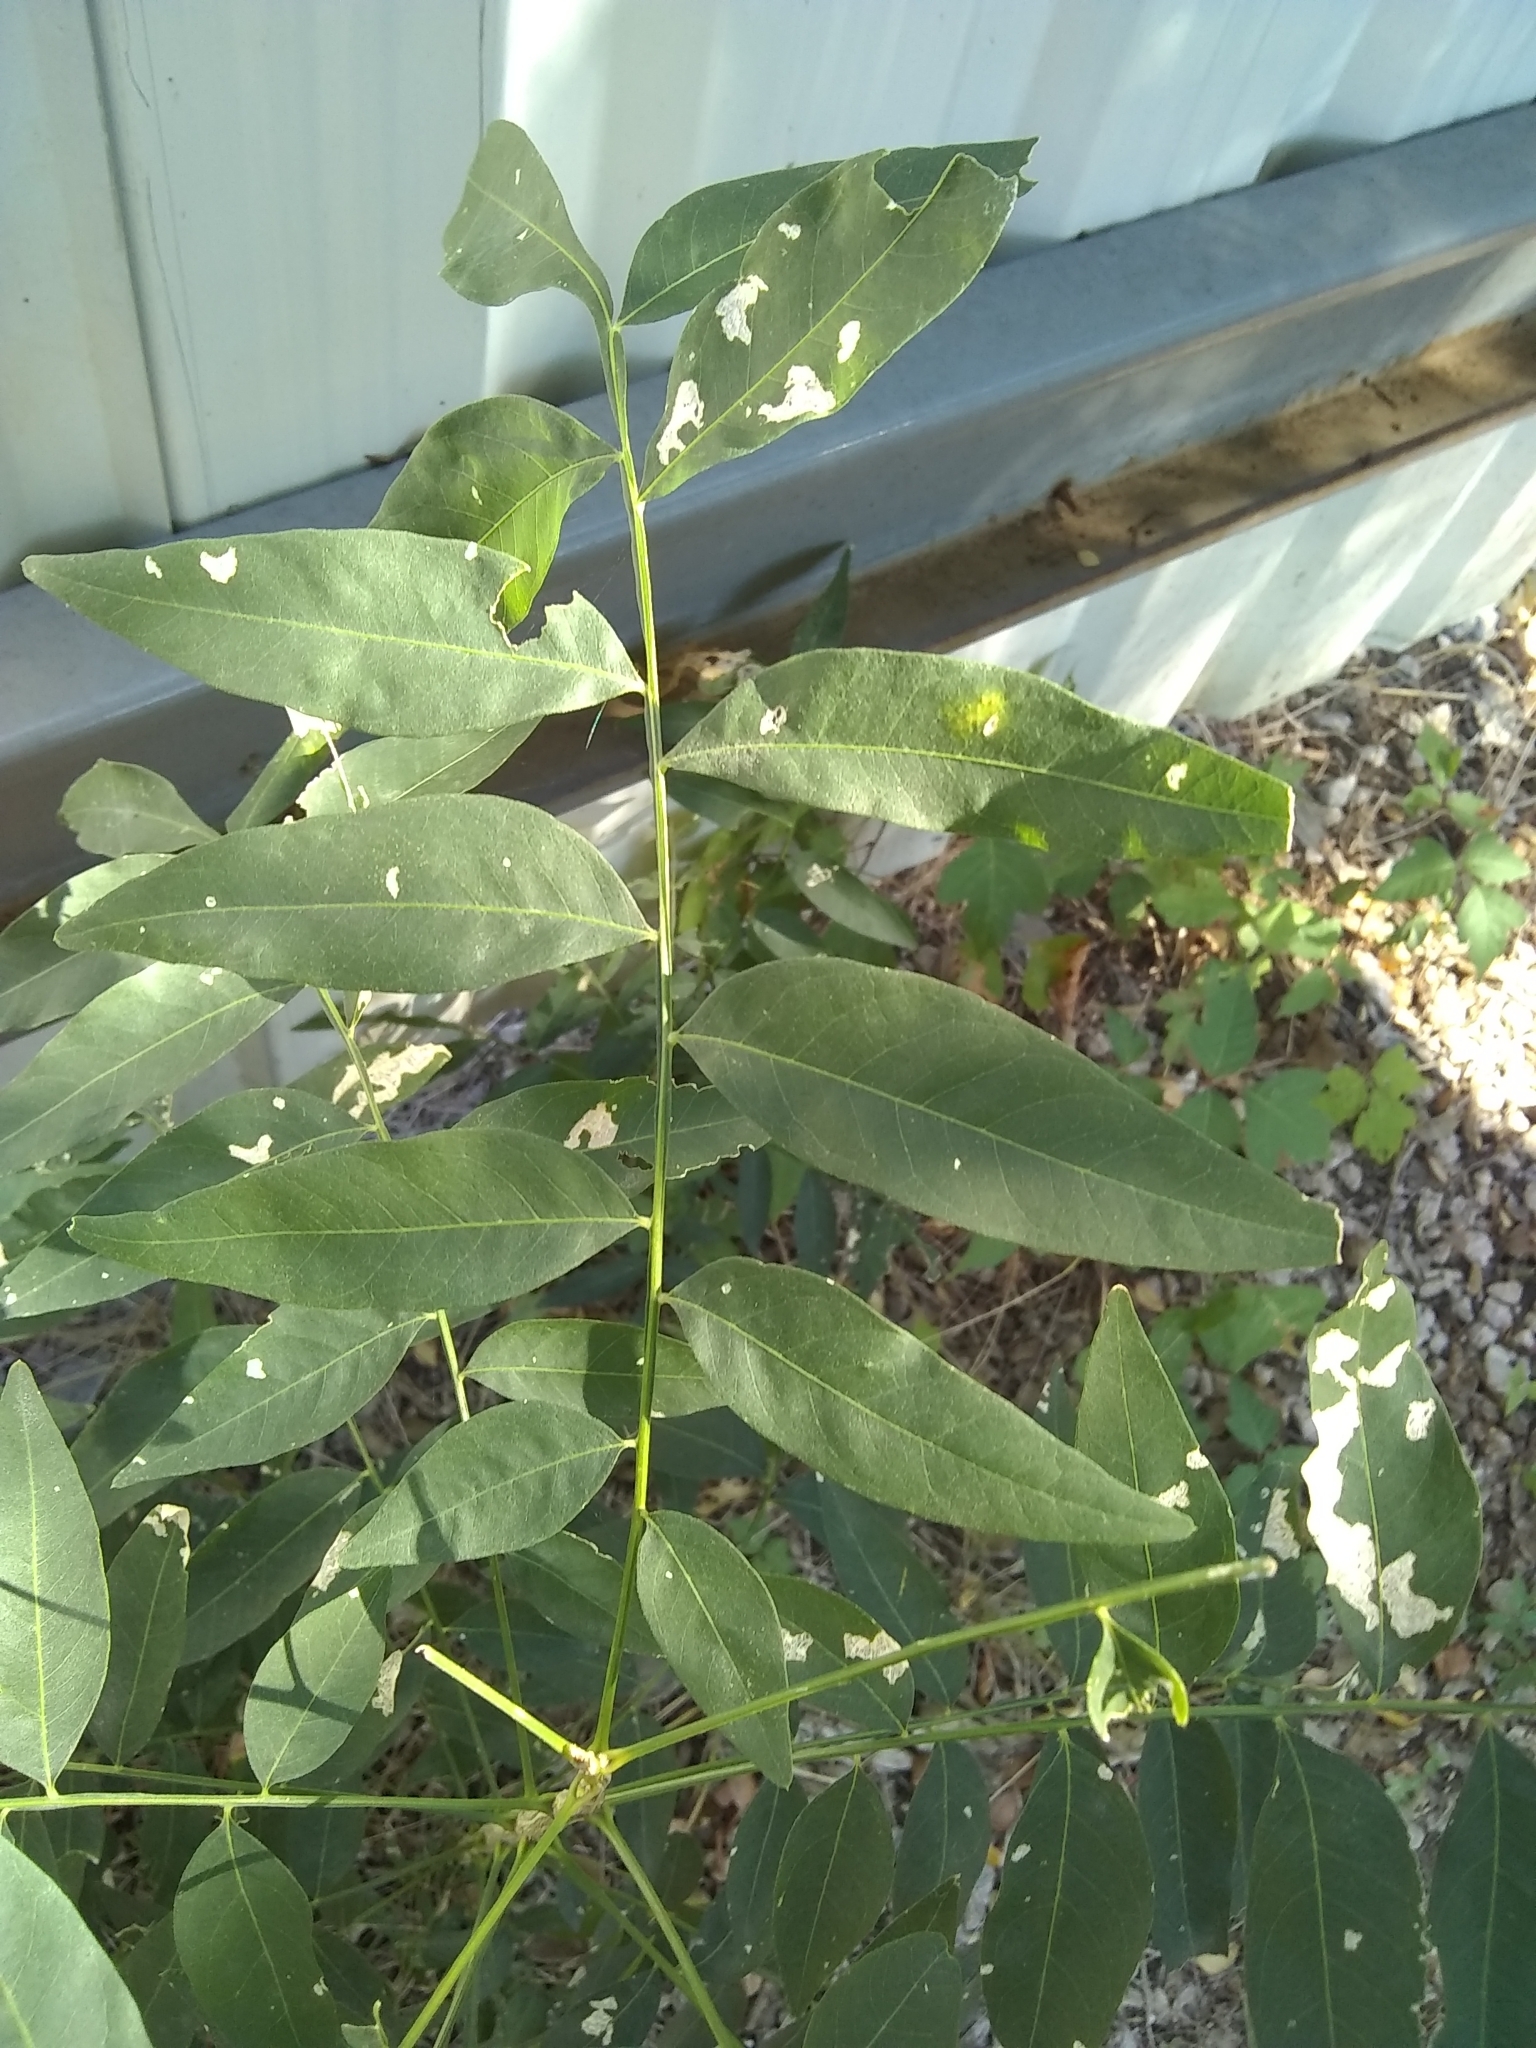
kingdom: Plantae
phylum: Tracheophyta
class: Magnoliopsida
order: Sapindales
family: Sapindaceae
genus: Sapindus
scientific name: Sapindus drummondii
